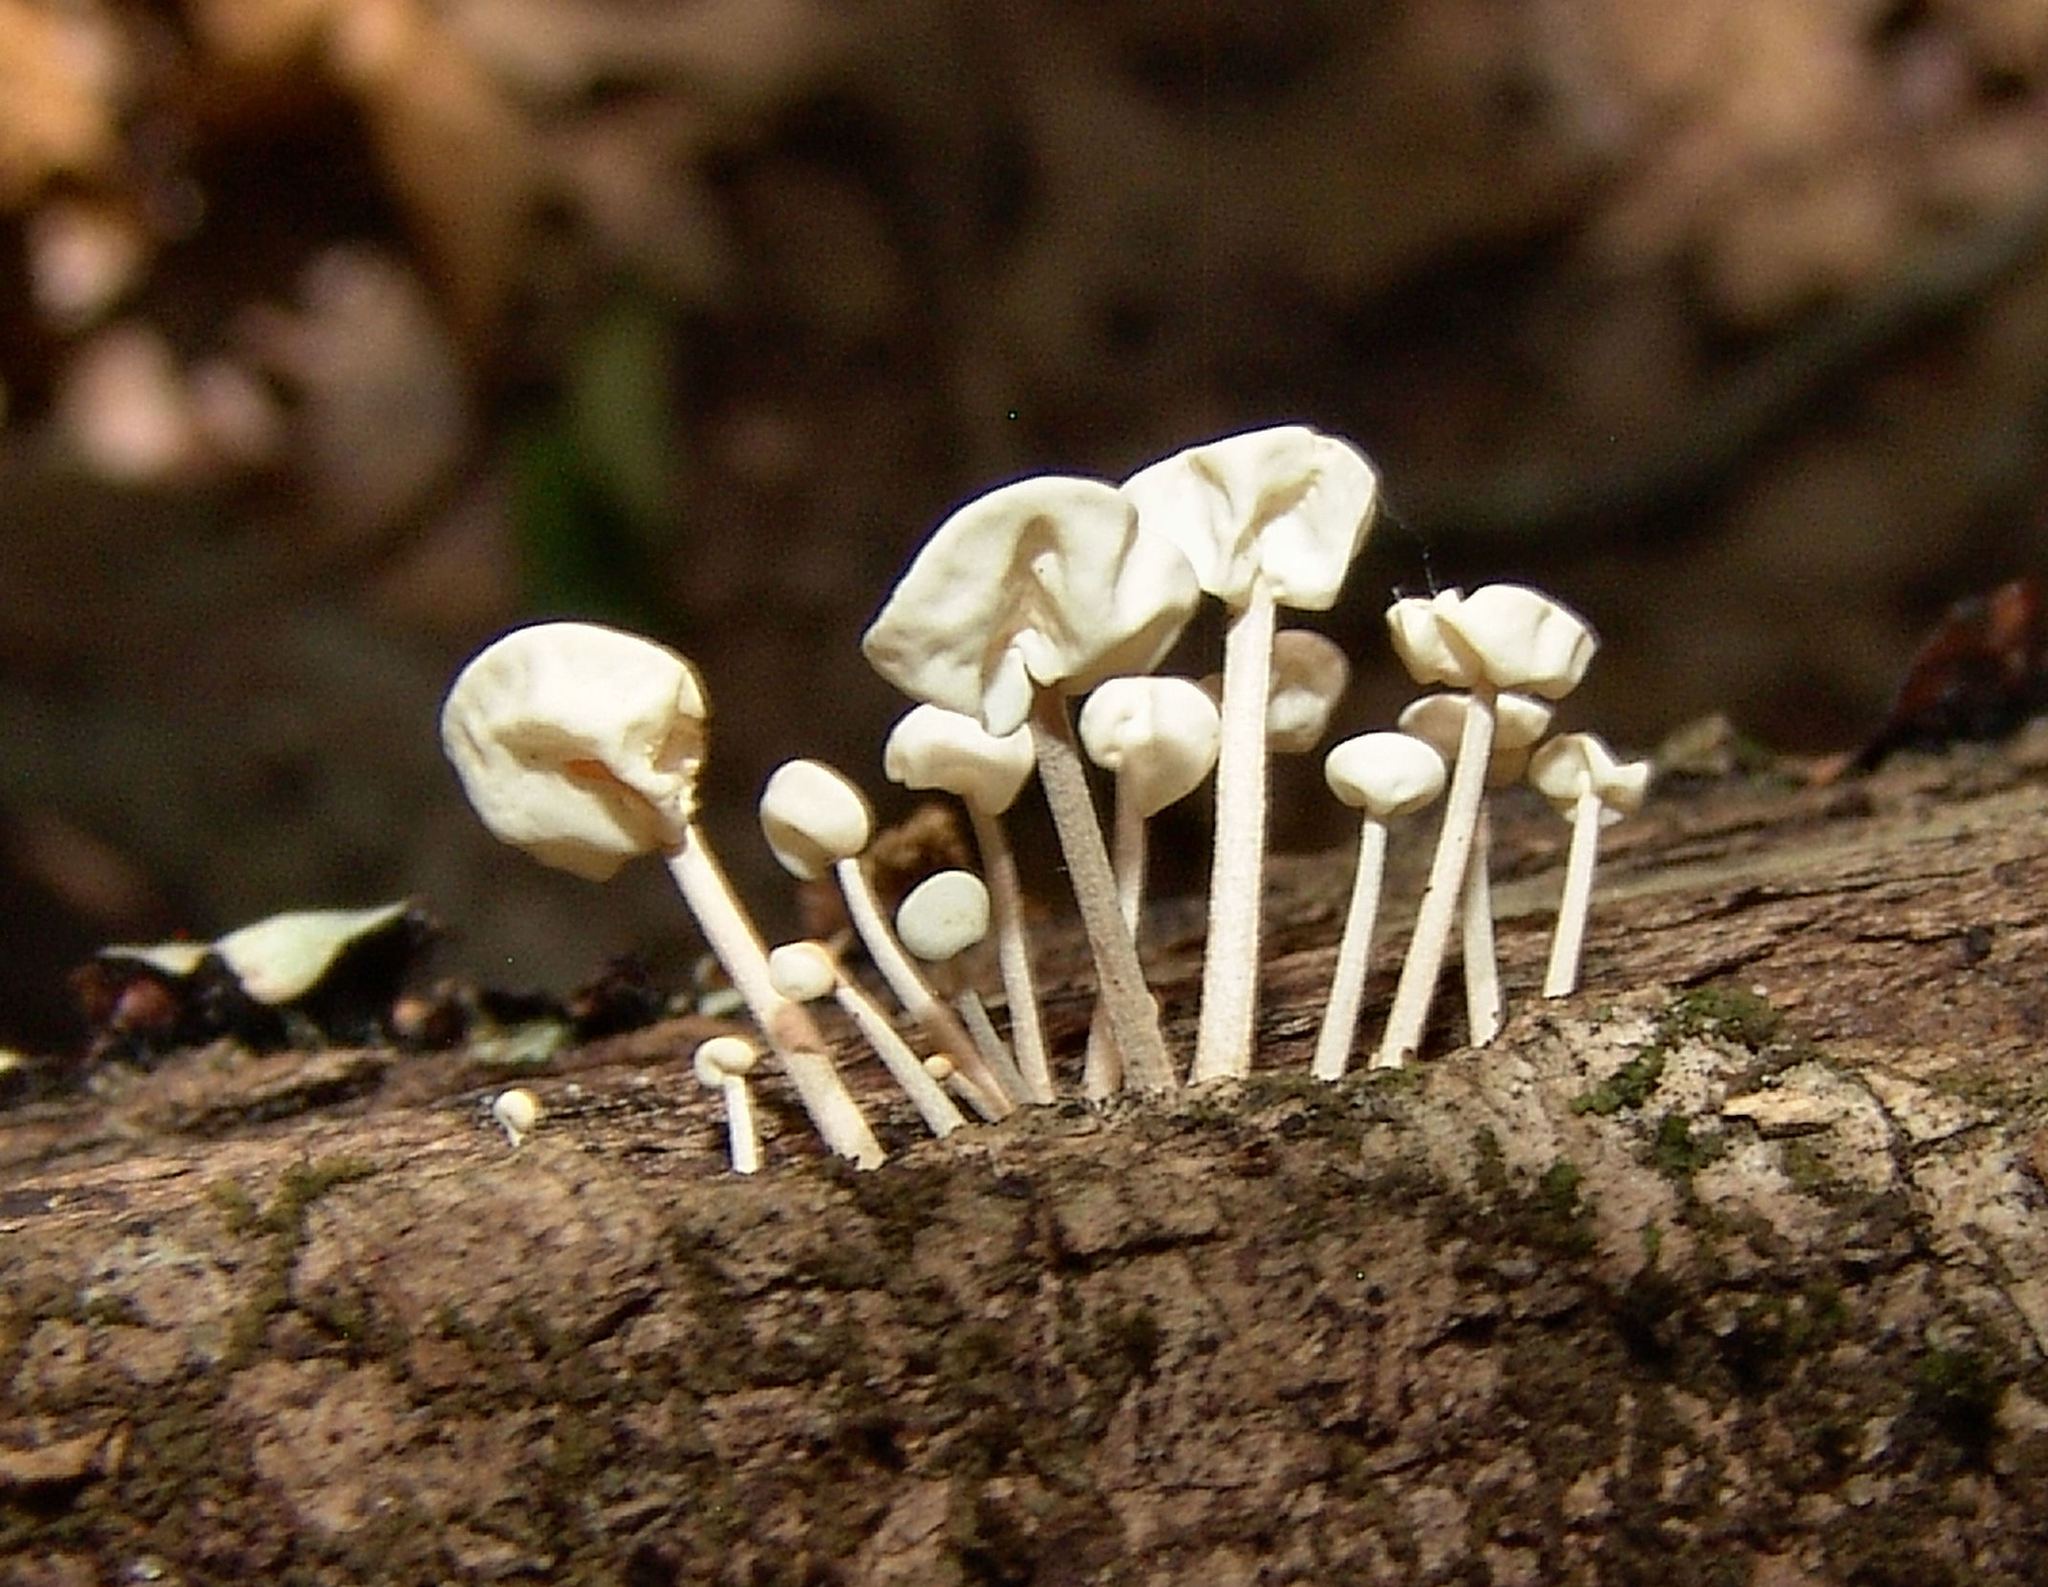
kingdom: Fungi
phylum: Basidiomycota
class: Agaricomycetes
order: Agaricales
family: Physalacriaceae
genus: Physalacria
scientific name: Physalacria inflata
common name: Bladder stalks
